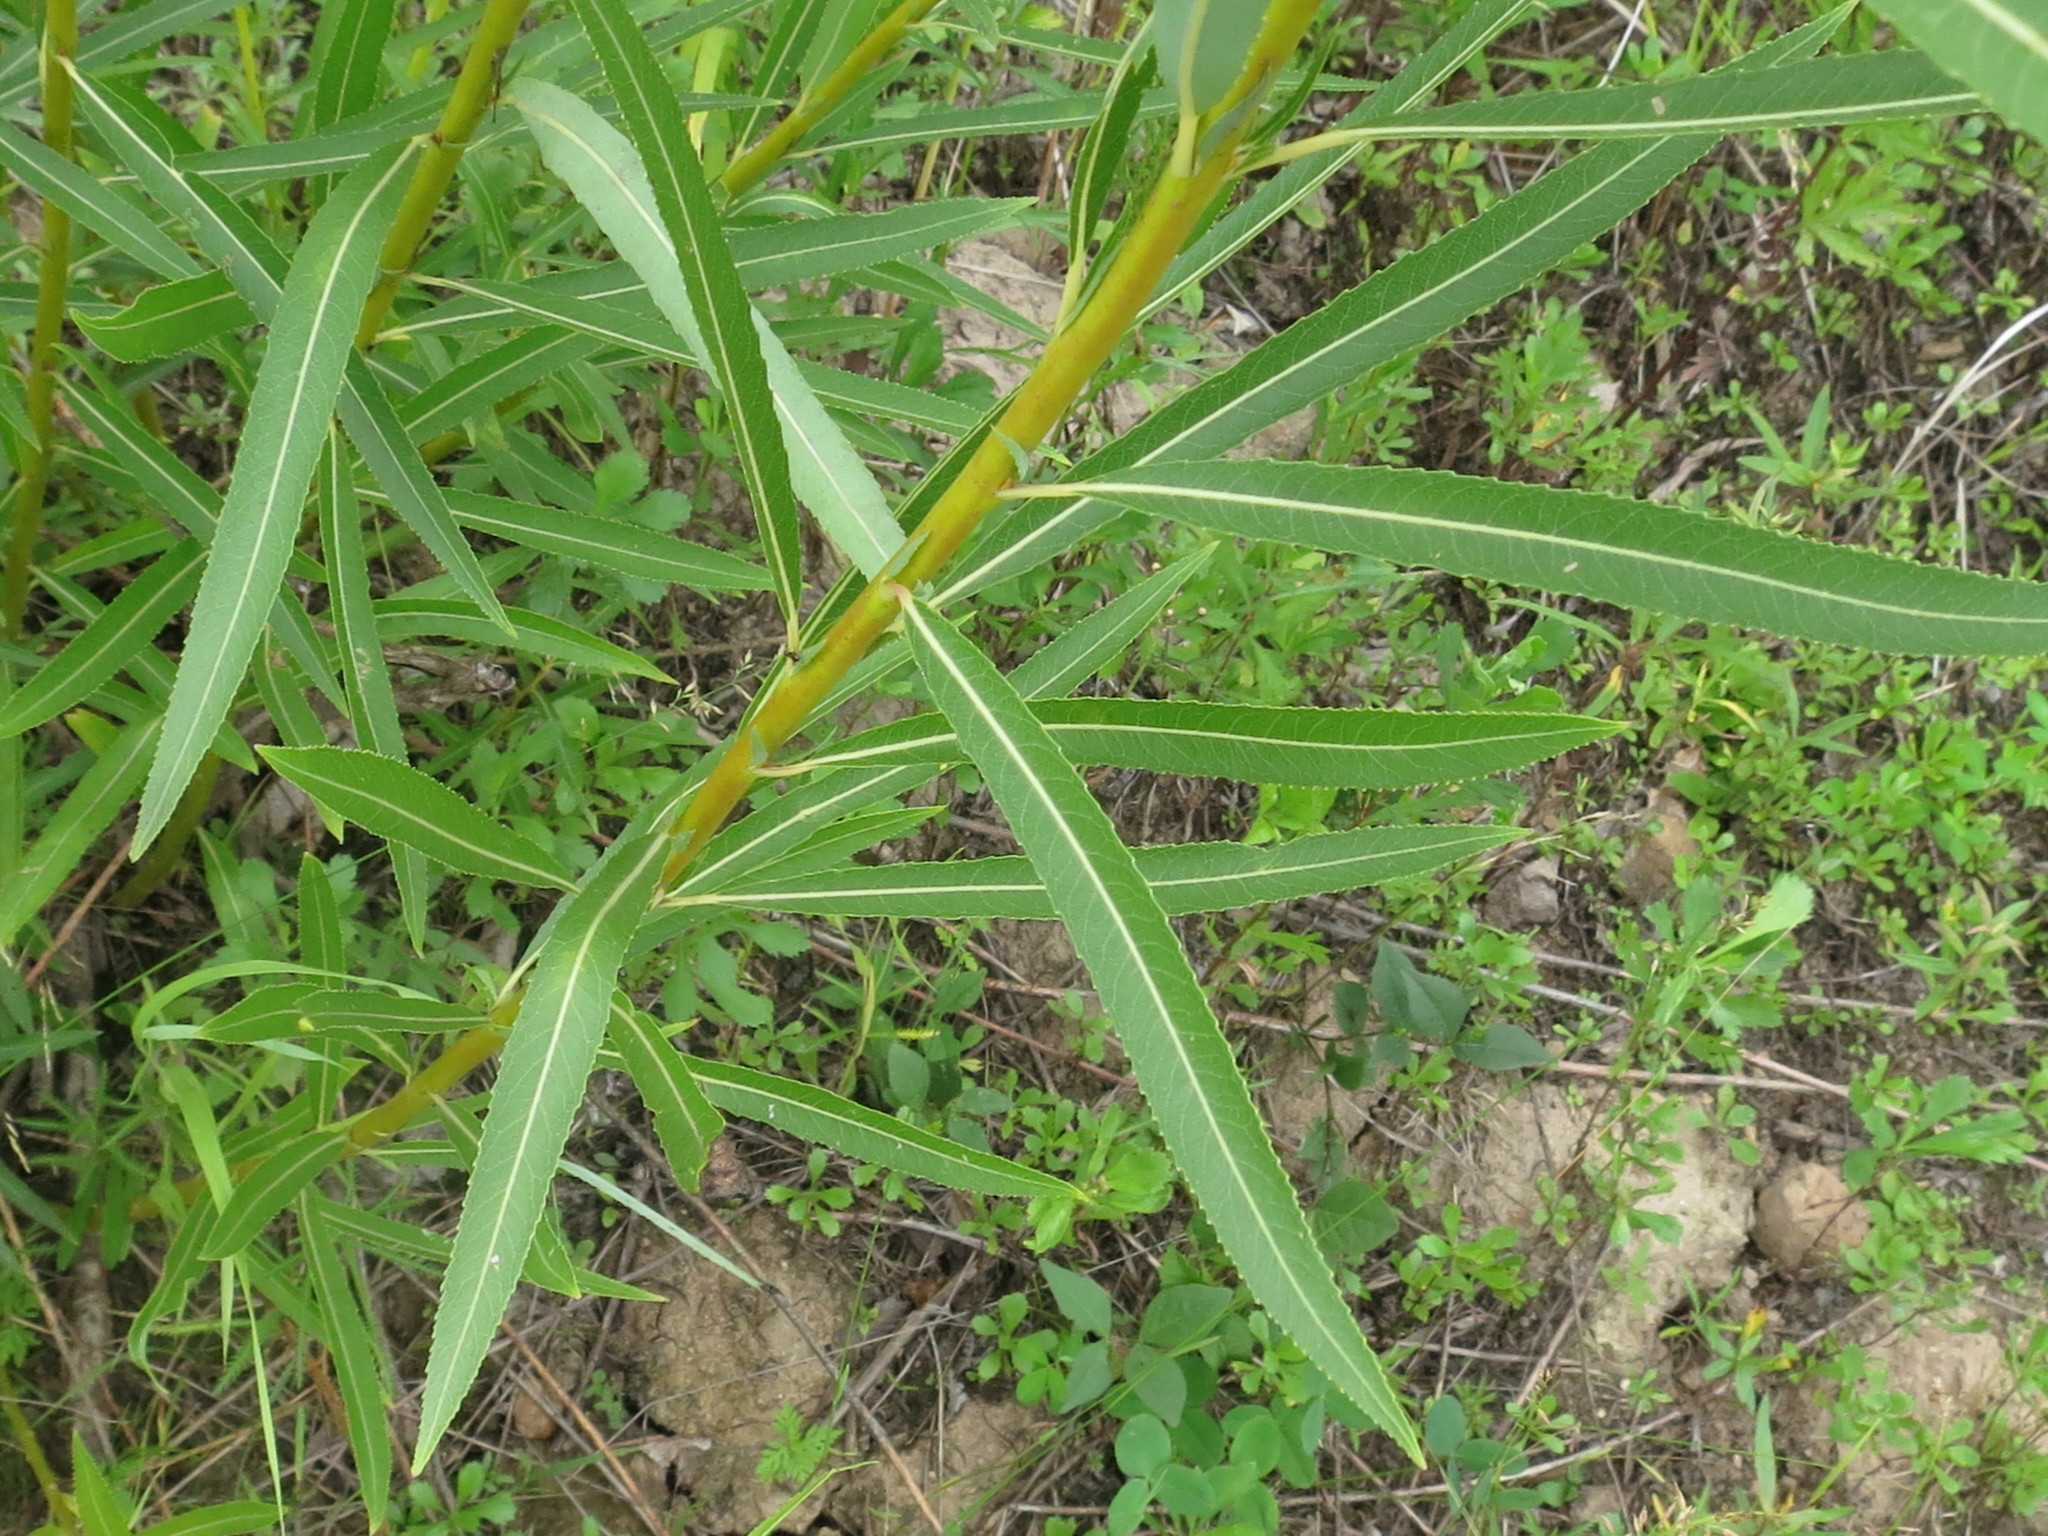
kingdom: Plantae
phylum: Tracheophyta
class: Magnoliopsida
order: Malpighiales
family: Salicaceae
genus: Salix
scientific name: Salix miyabeana
